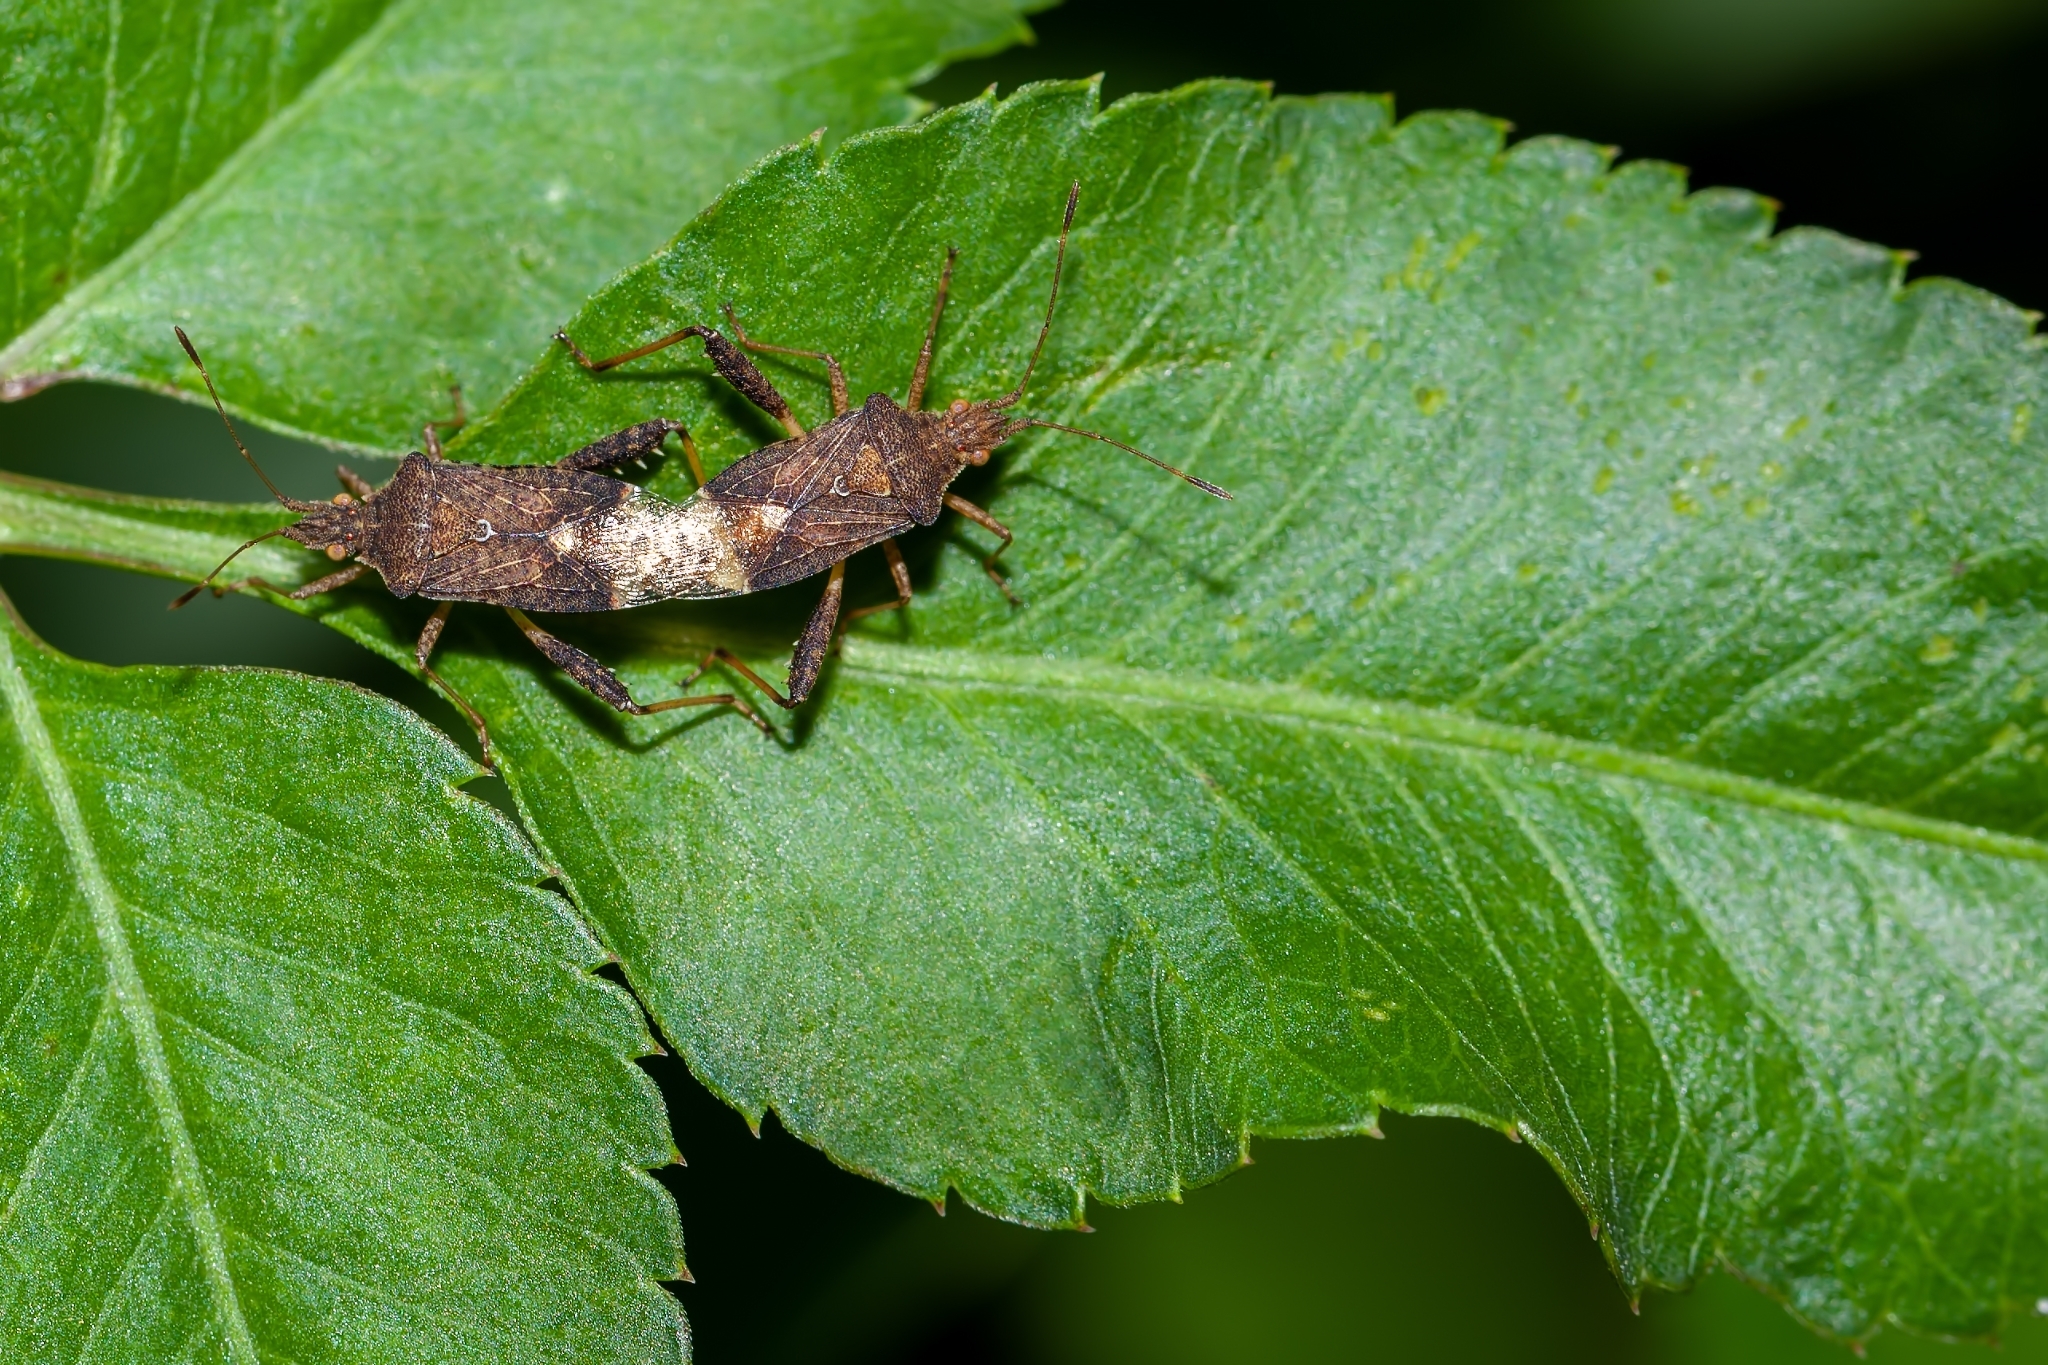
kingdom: Animalia
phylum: Arthropoda
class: Insecta
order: Hemiptera
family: Rhopalidae
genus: Harmostes
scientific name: Harmostes serratus
